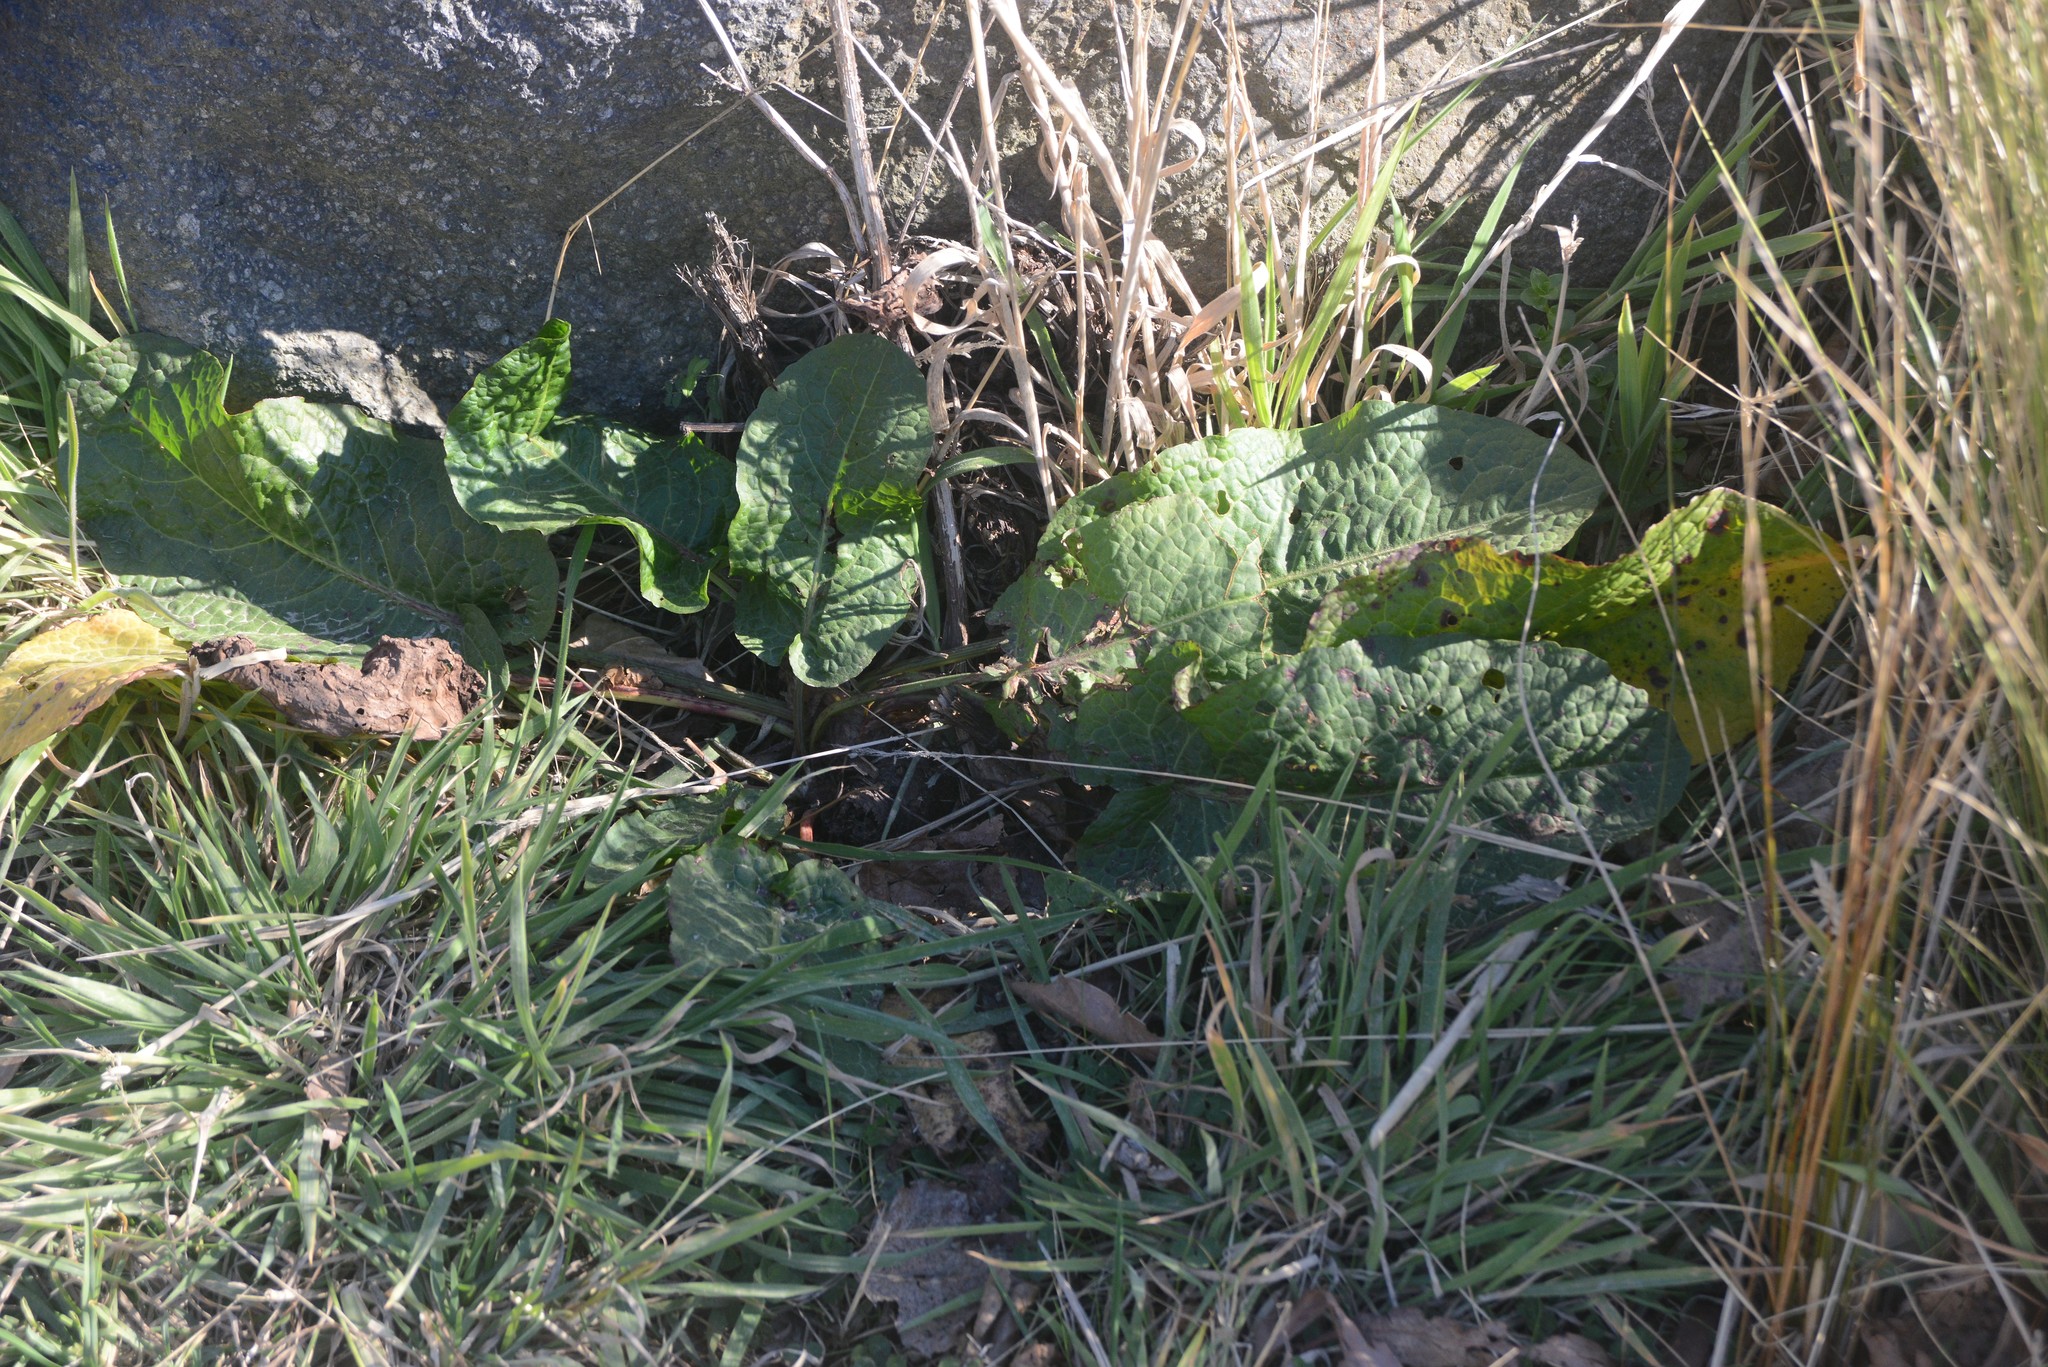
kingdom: Plantae
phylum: Tracheophyta
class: Magnoliopsida
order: Caryophyllales
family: Polygonaceae
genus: Rumex
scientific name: Rumex obtusifolius
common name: Bitter dock
